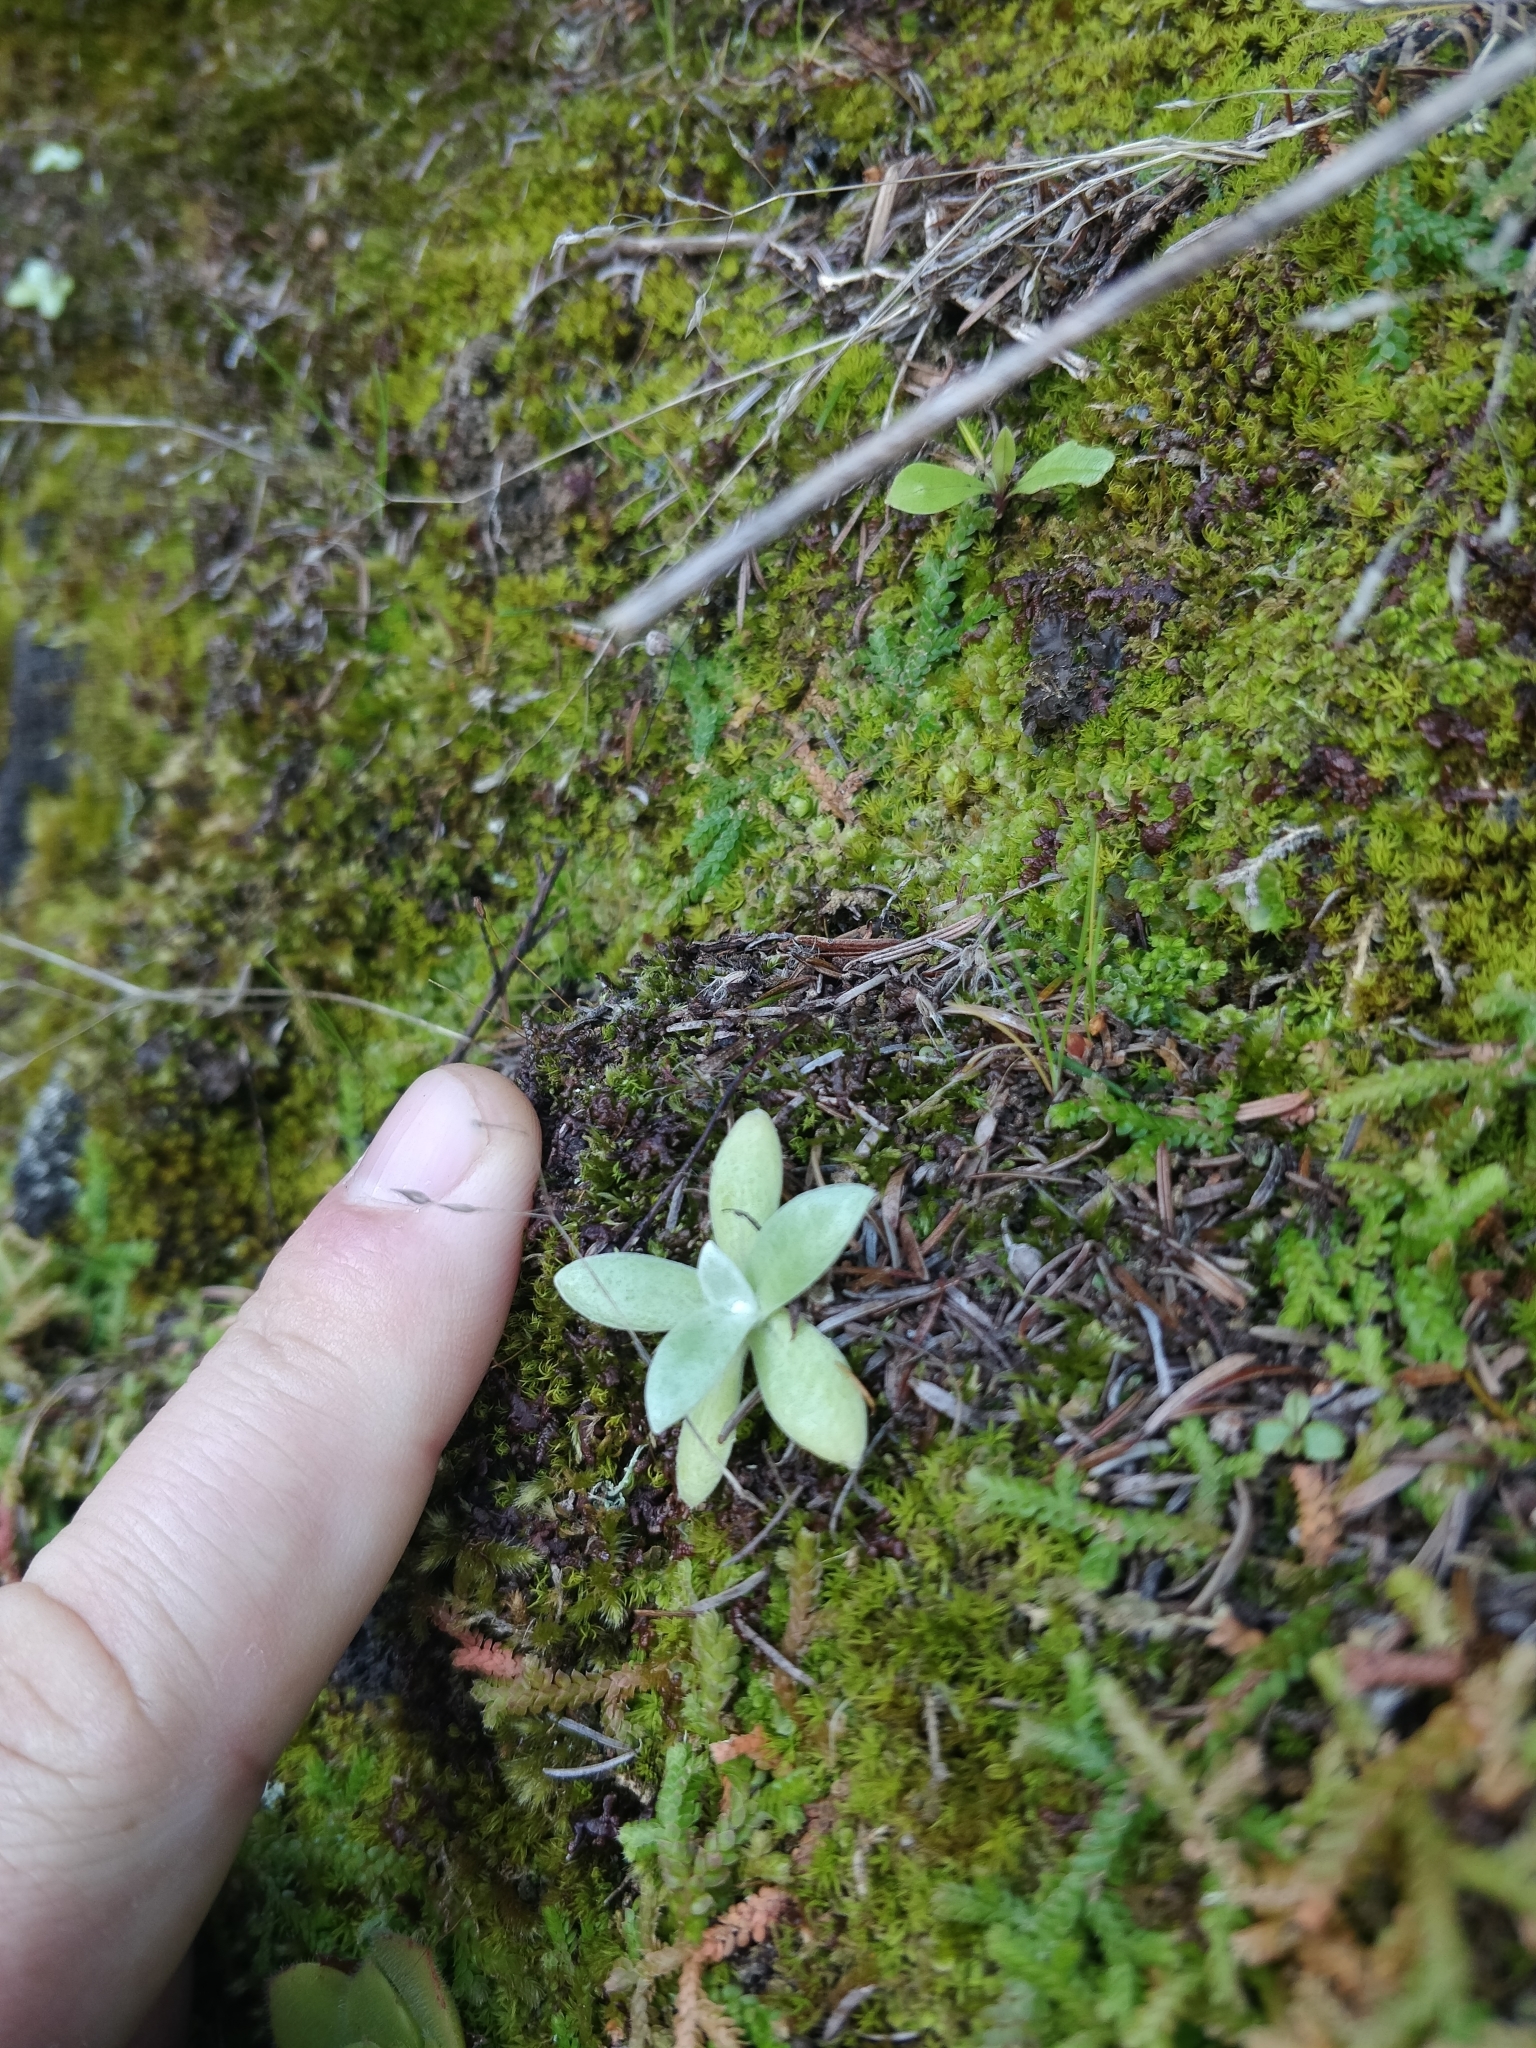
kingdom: Plantae
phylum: Tracheophyta
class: Magnoliopsida
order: Asterales
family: Asteraceae
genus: Helichrysum
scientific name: Helichrysum melaleucum
